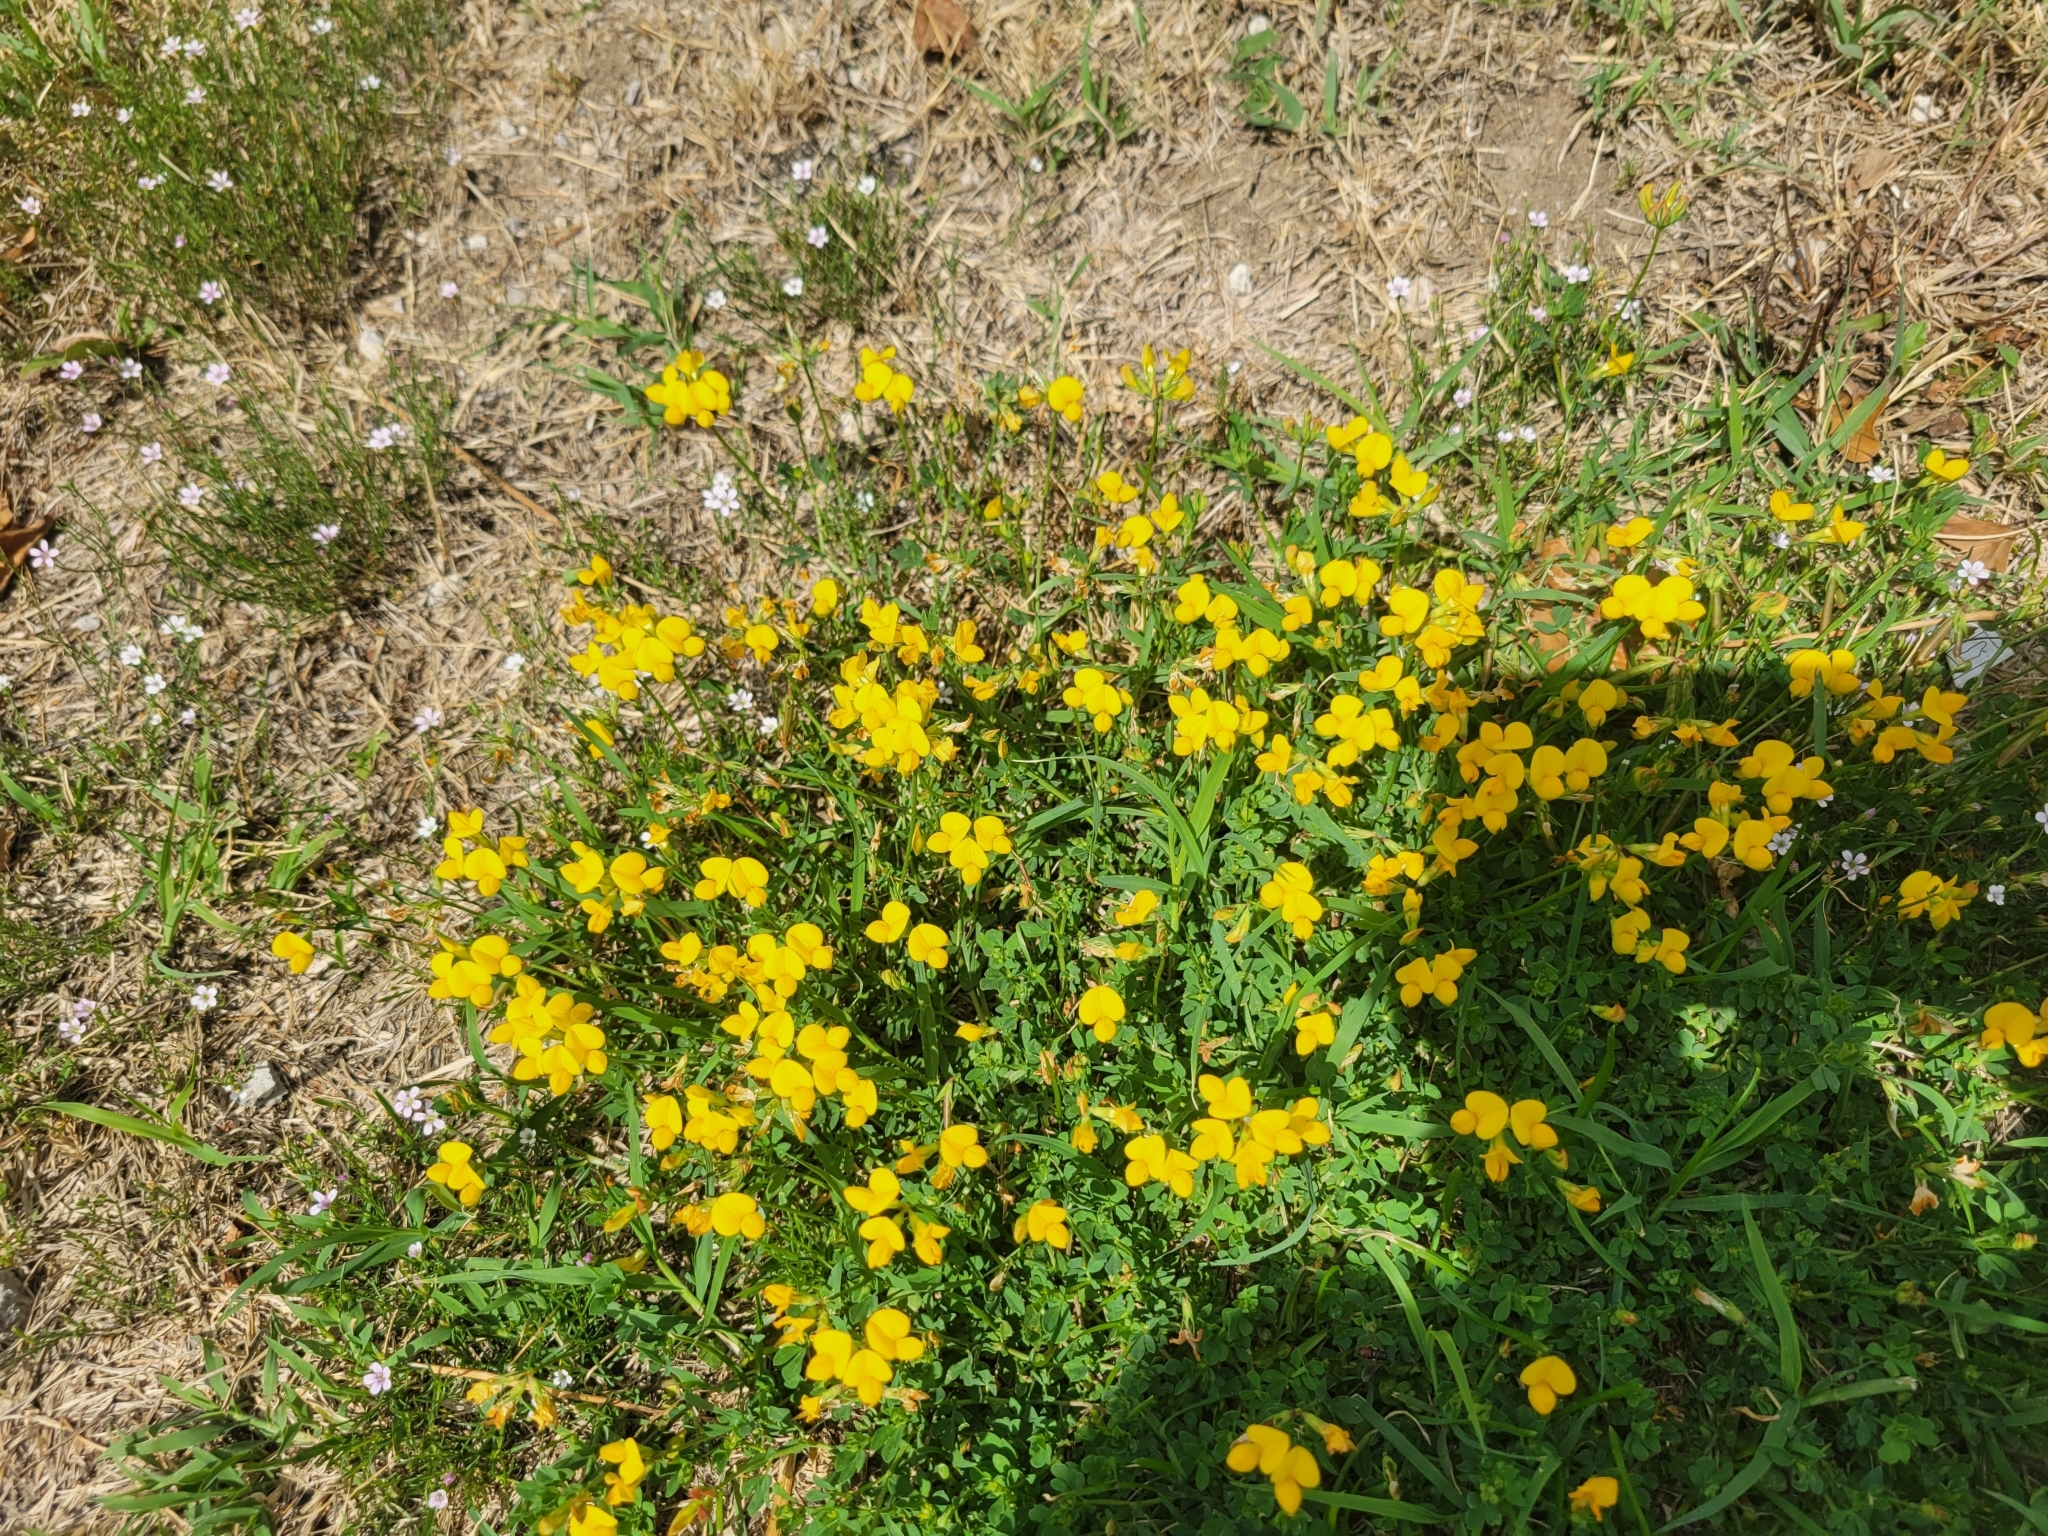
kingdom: Plantae
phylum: Tracheophyta
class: Magnoliopsida
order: Fabales
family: Fabaceae
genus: Lotus
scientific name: Lotus corniculatus
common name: Common bird's-foot-trefoil
